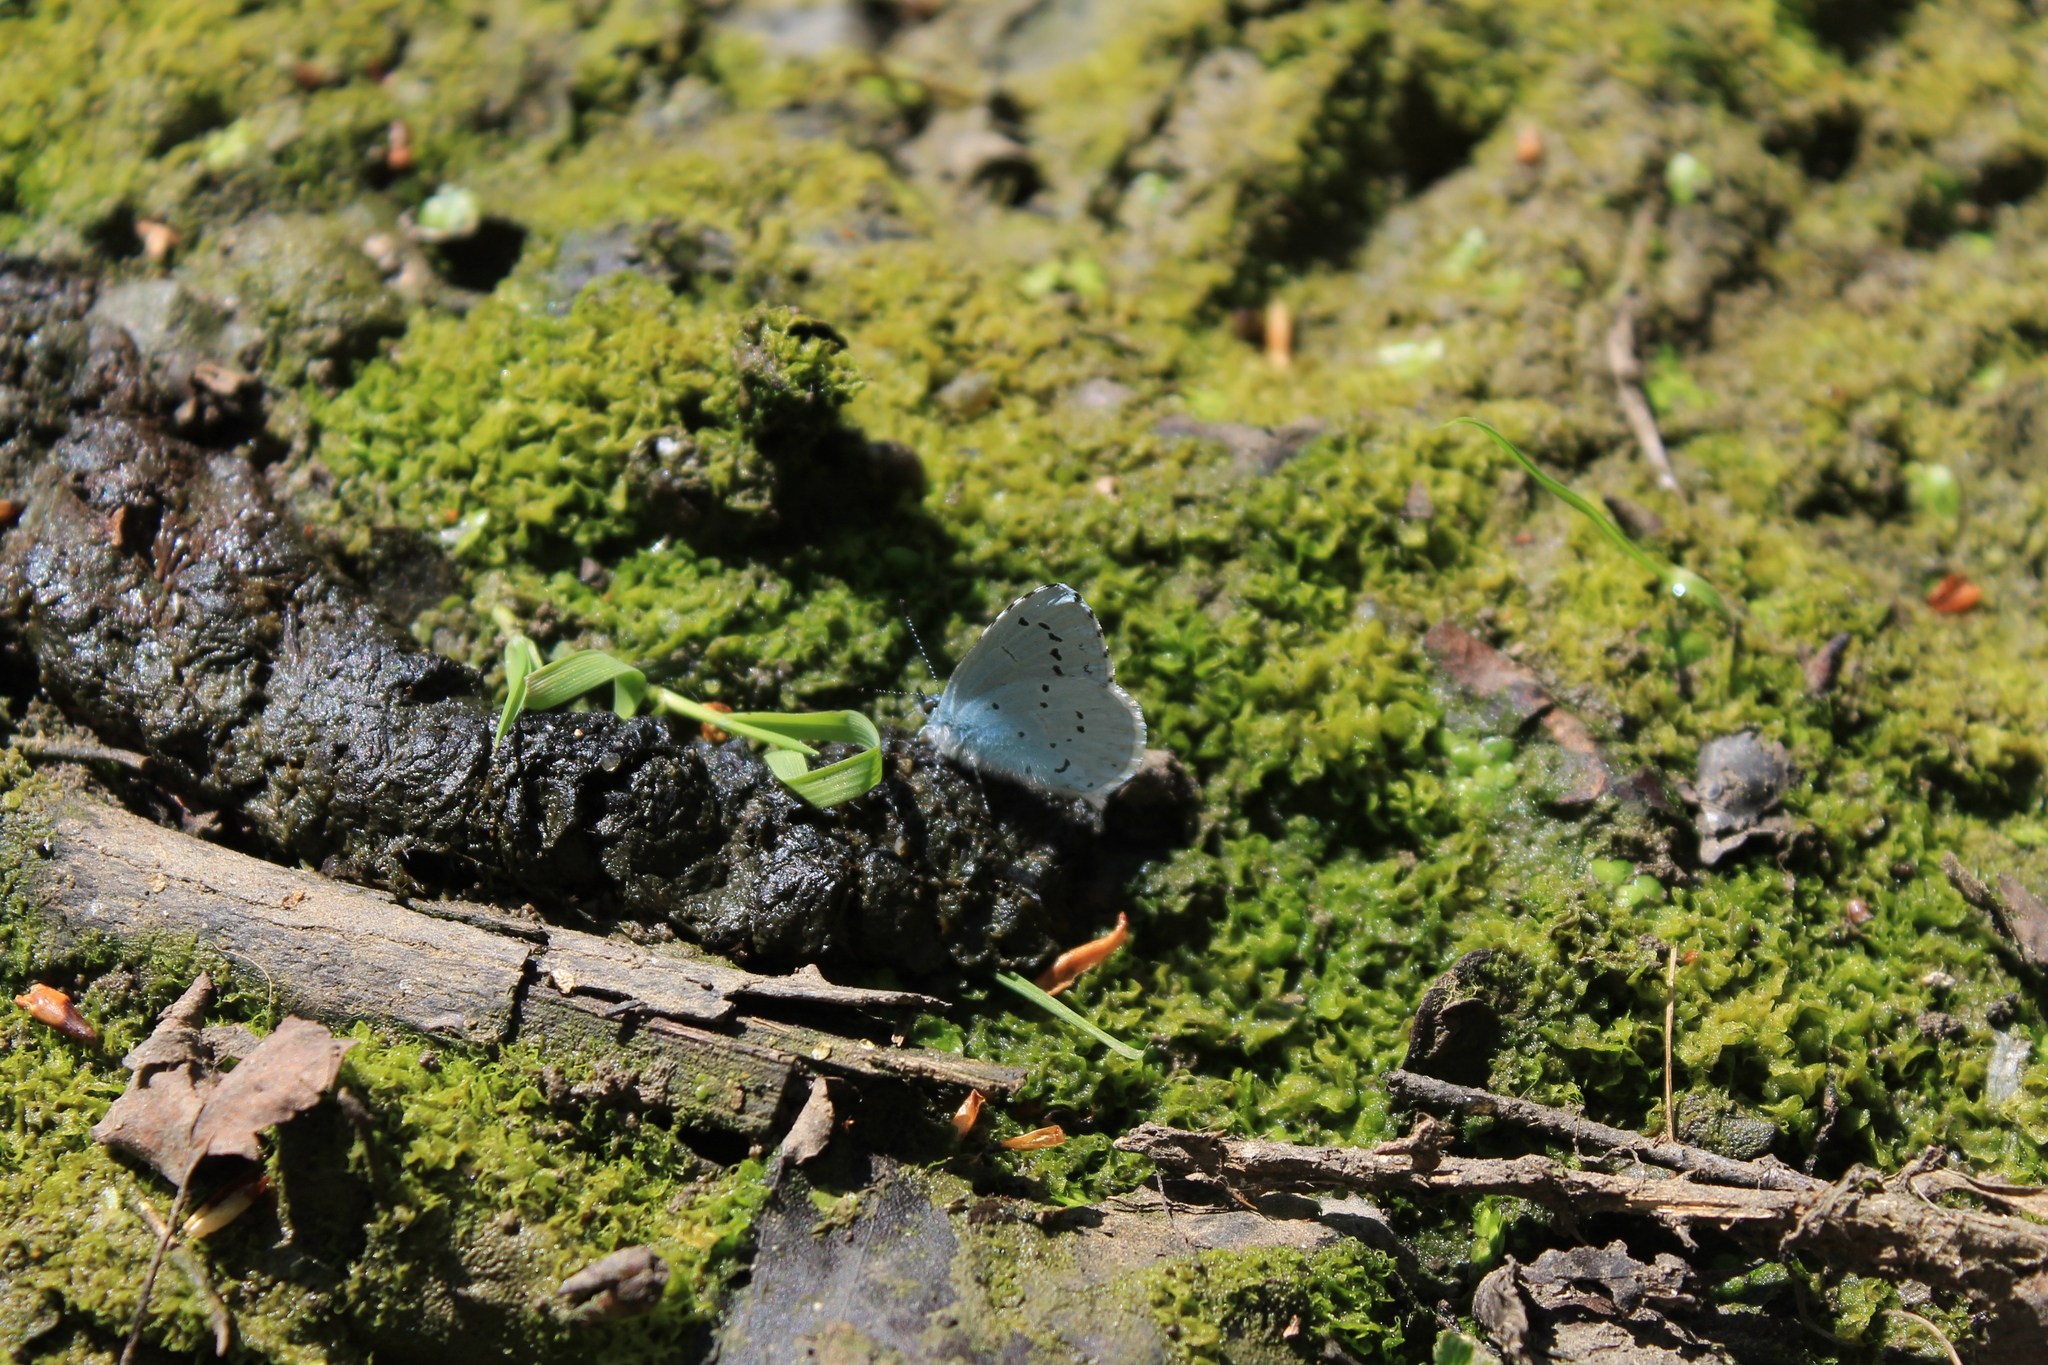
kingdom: Animalia
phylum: Arthropoda
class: Insecta
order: Lepidoptera
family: Lycaenidae
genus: Celastrina
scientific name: Celastrina argiolus
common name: Holly blue
